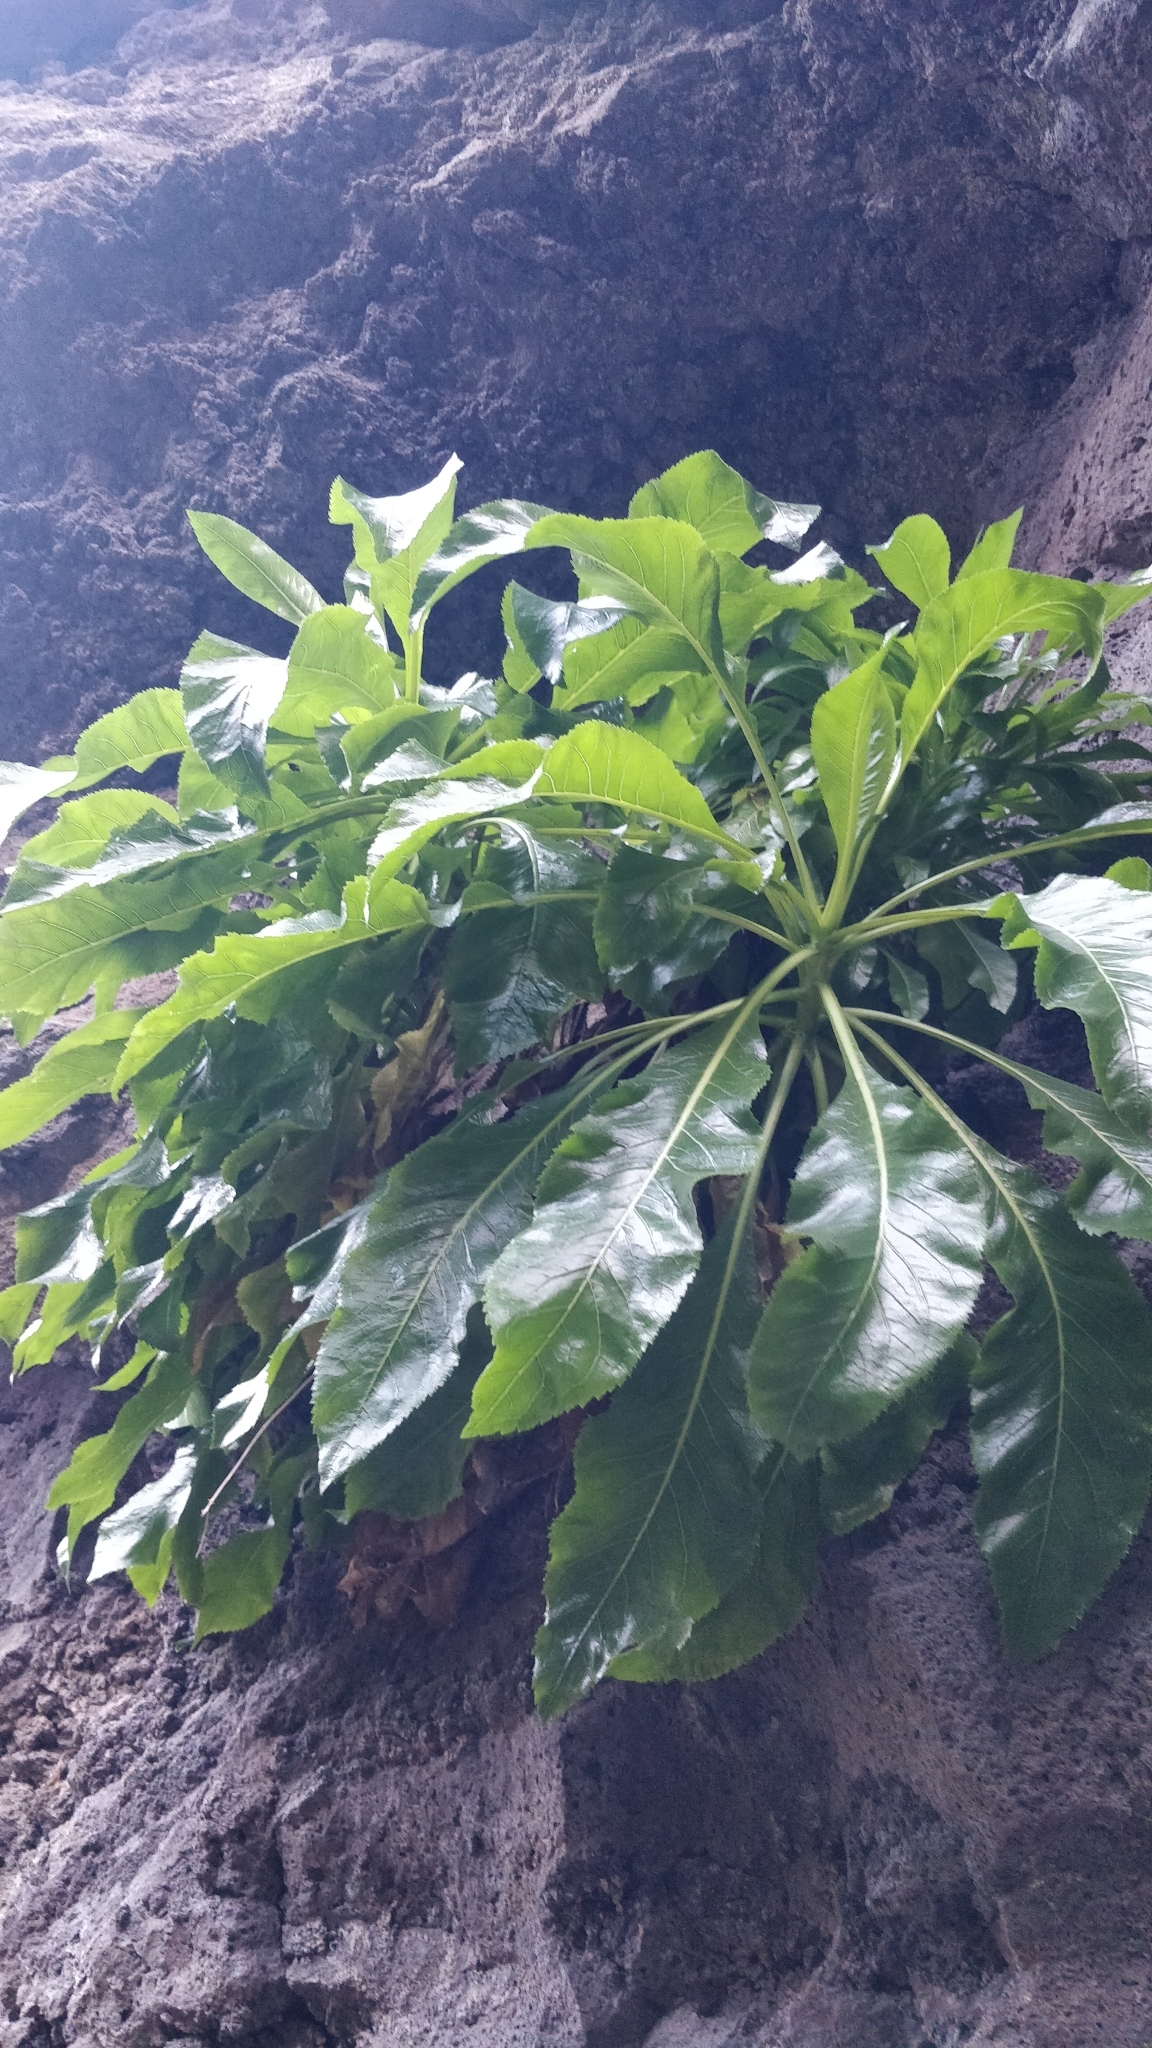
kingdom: Plantae
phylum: Tracheophyta
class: Magnoliopsida
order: Asterales
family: Campanulaceae
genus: Musschia
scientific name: Musschia aurea
